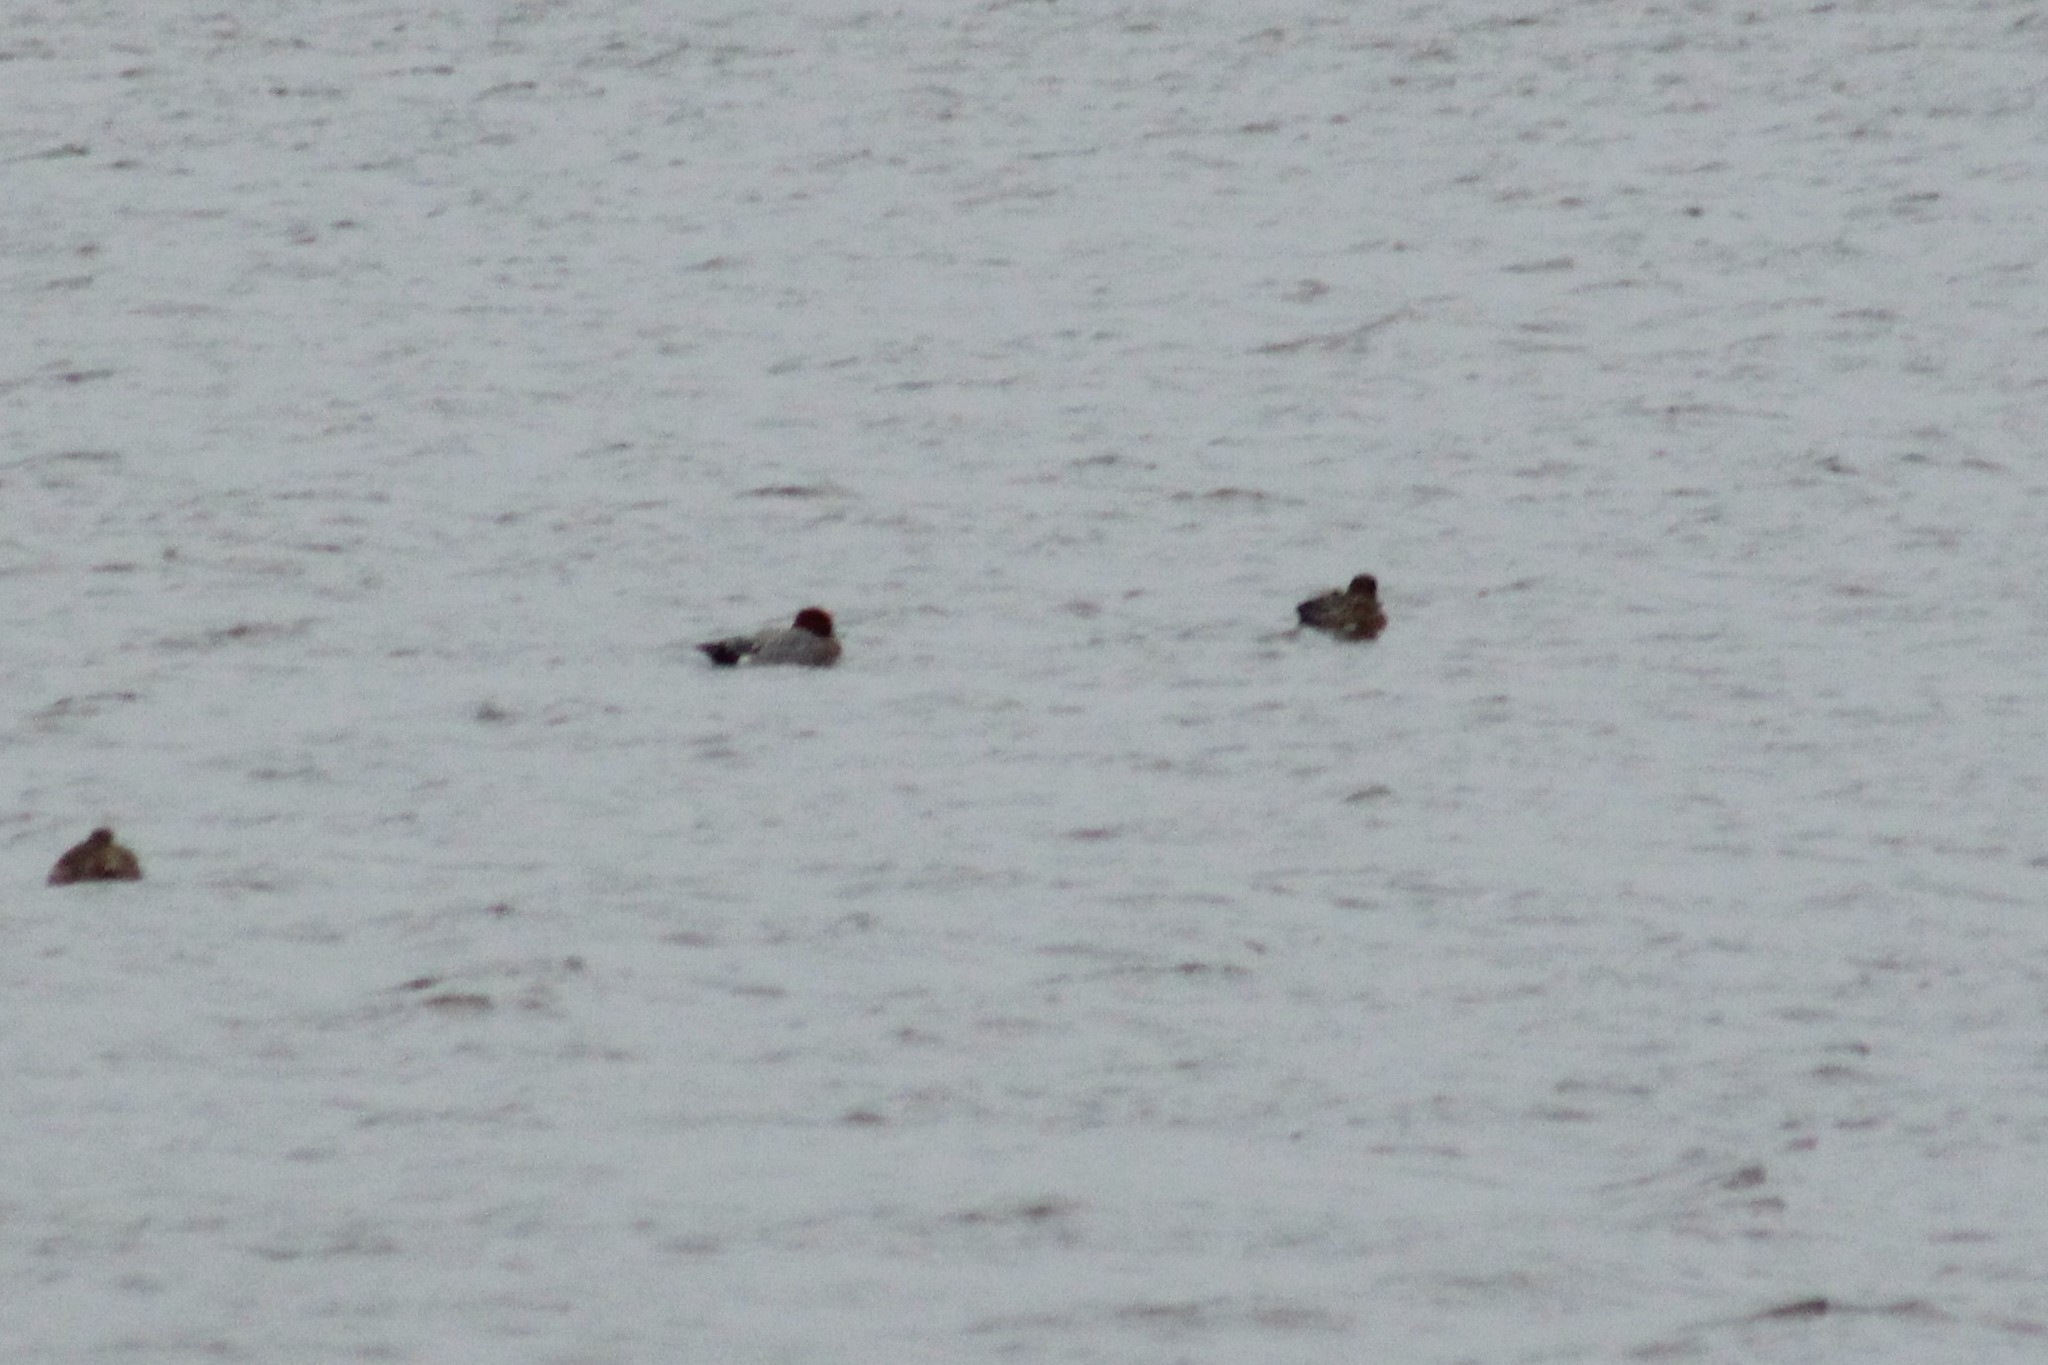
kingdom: Animalia
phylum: Chordata
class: Aves
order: Anseriformes
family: Anatidae
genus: Mareca
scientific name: Mareca penelope
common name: Eurasian wigeon
